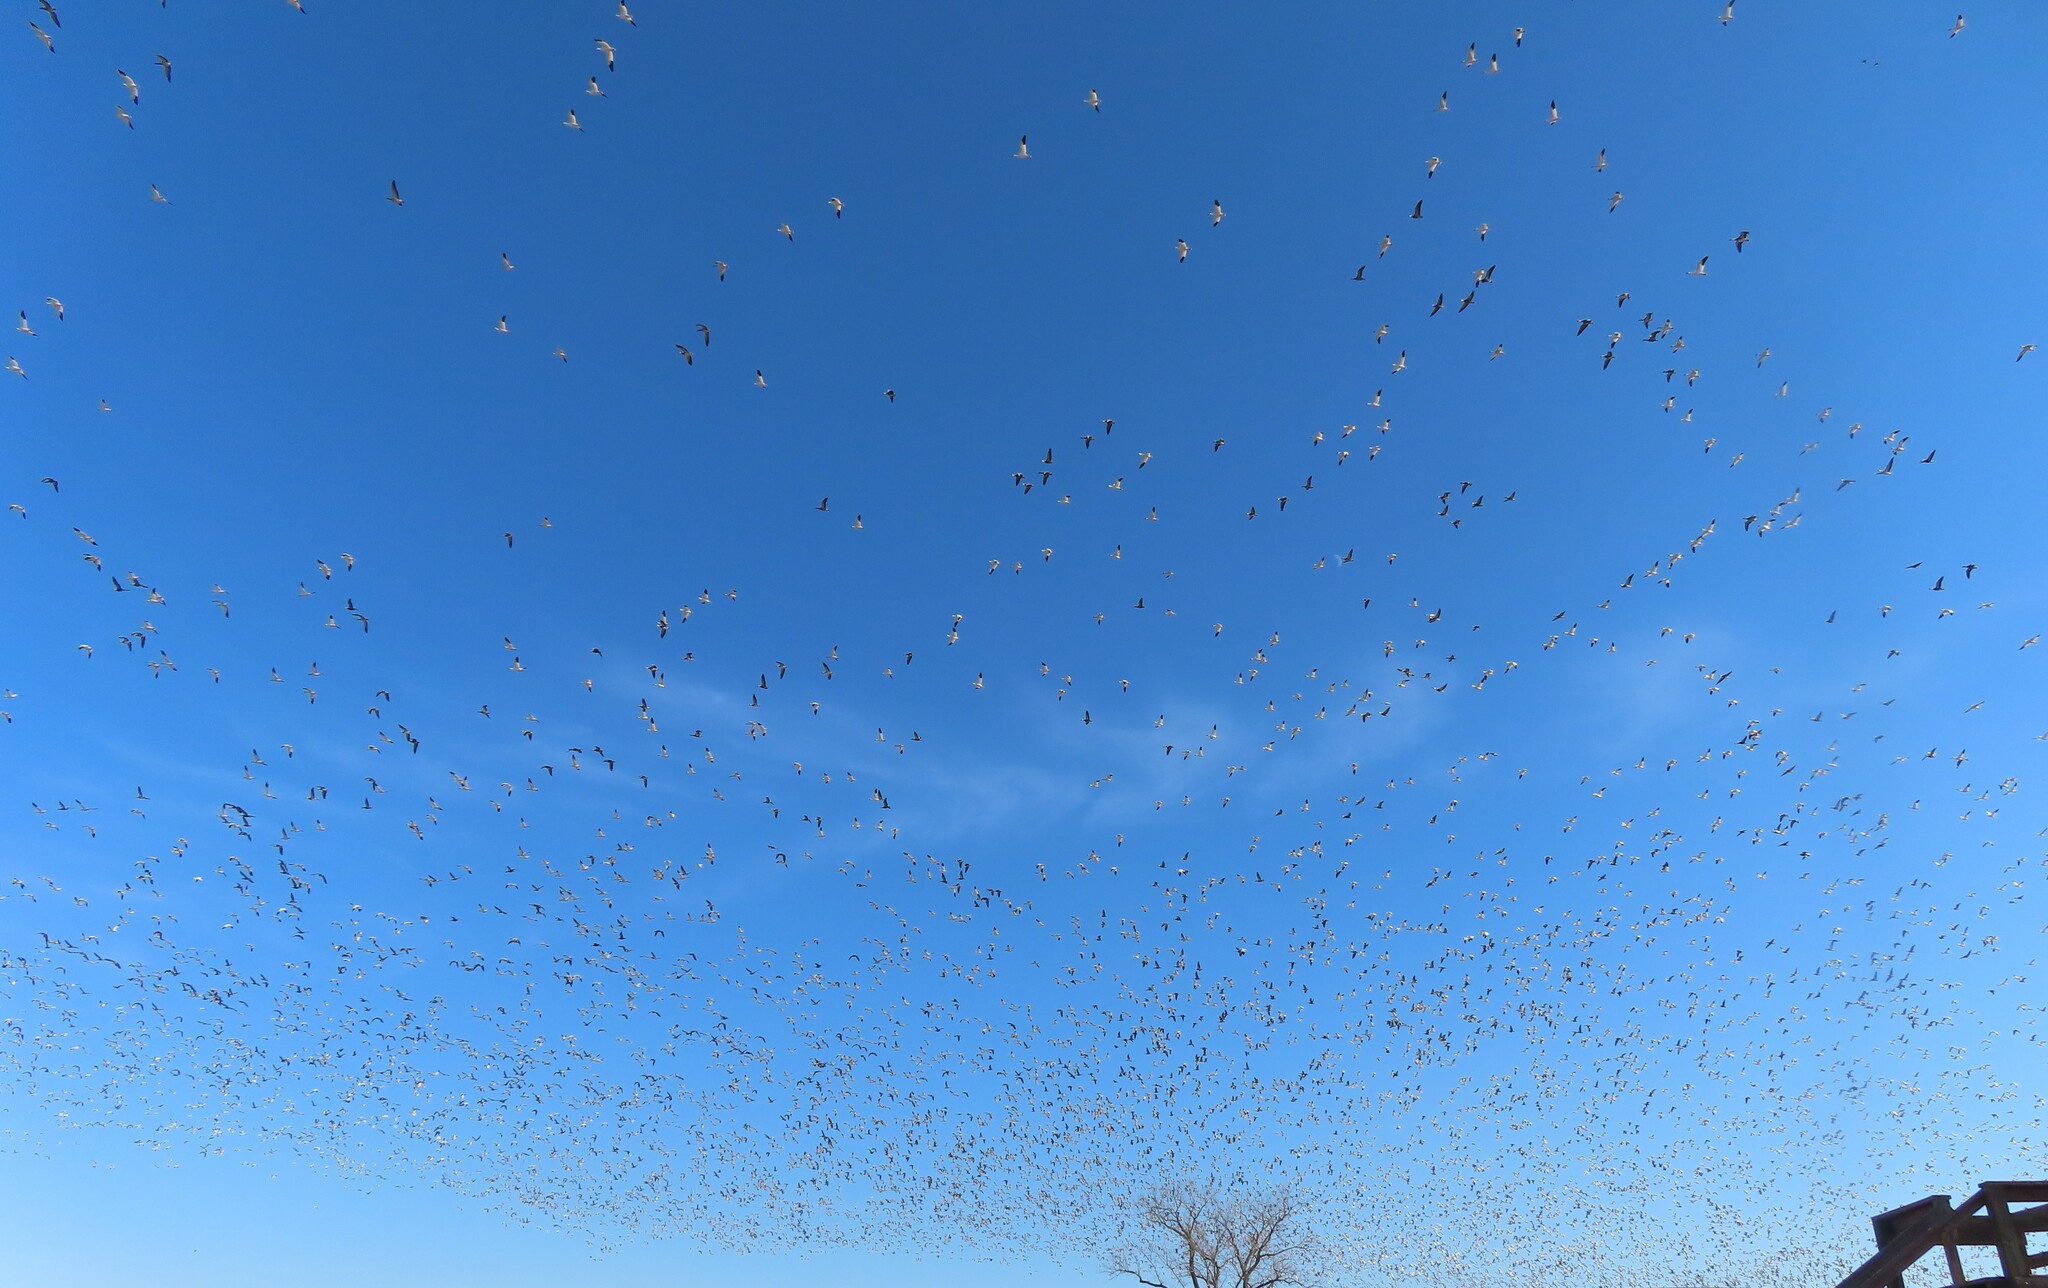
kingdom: Animalia
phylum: Chordata
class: Aves
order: Anseriformes
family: Anatidae
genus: Anser
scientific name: Anser caerulescens
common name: Snow goose
